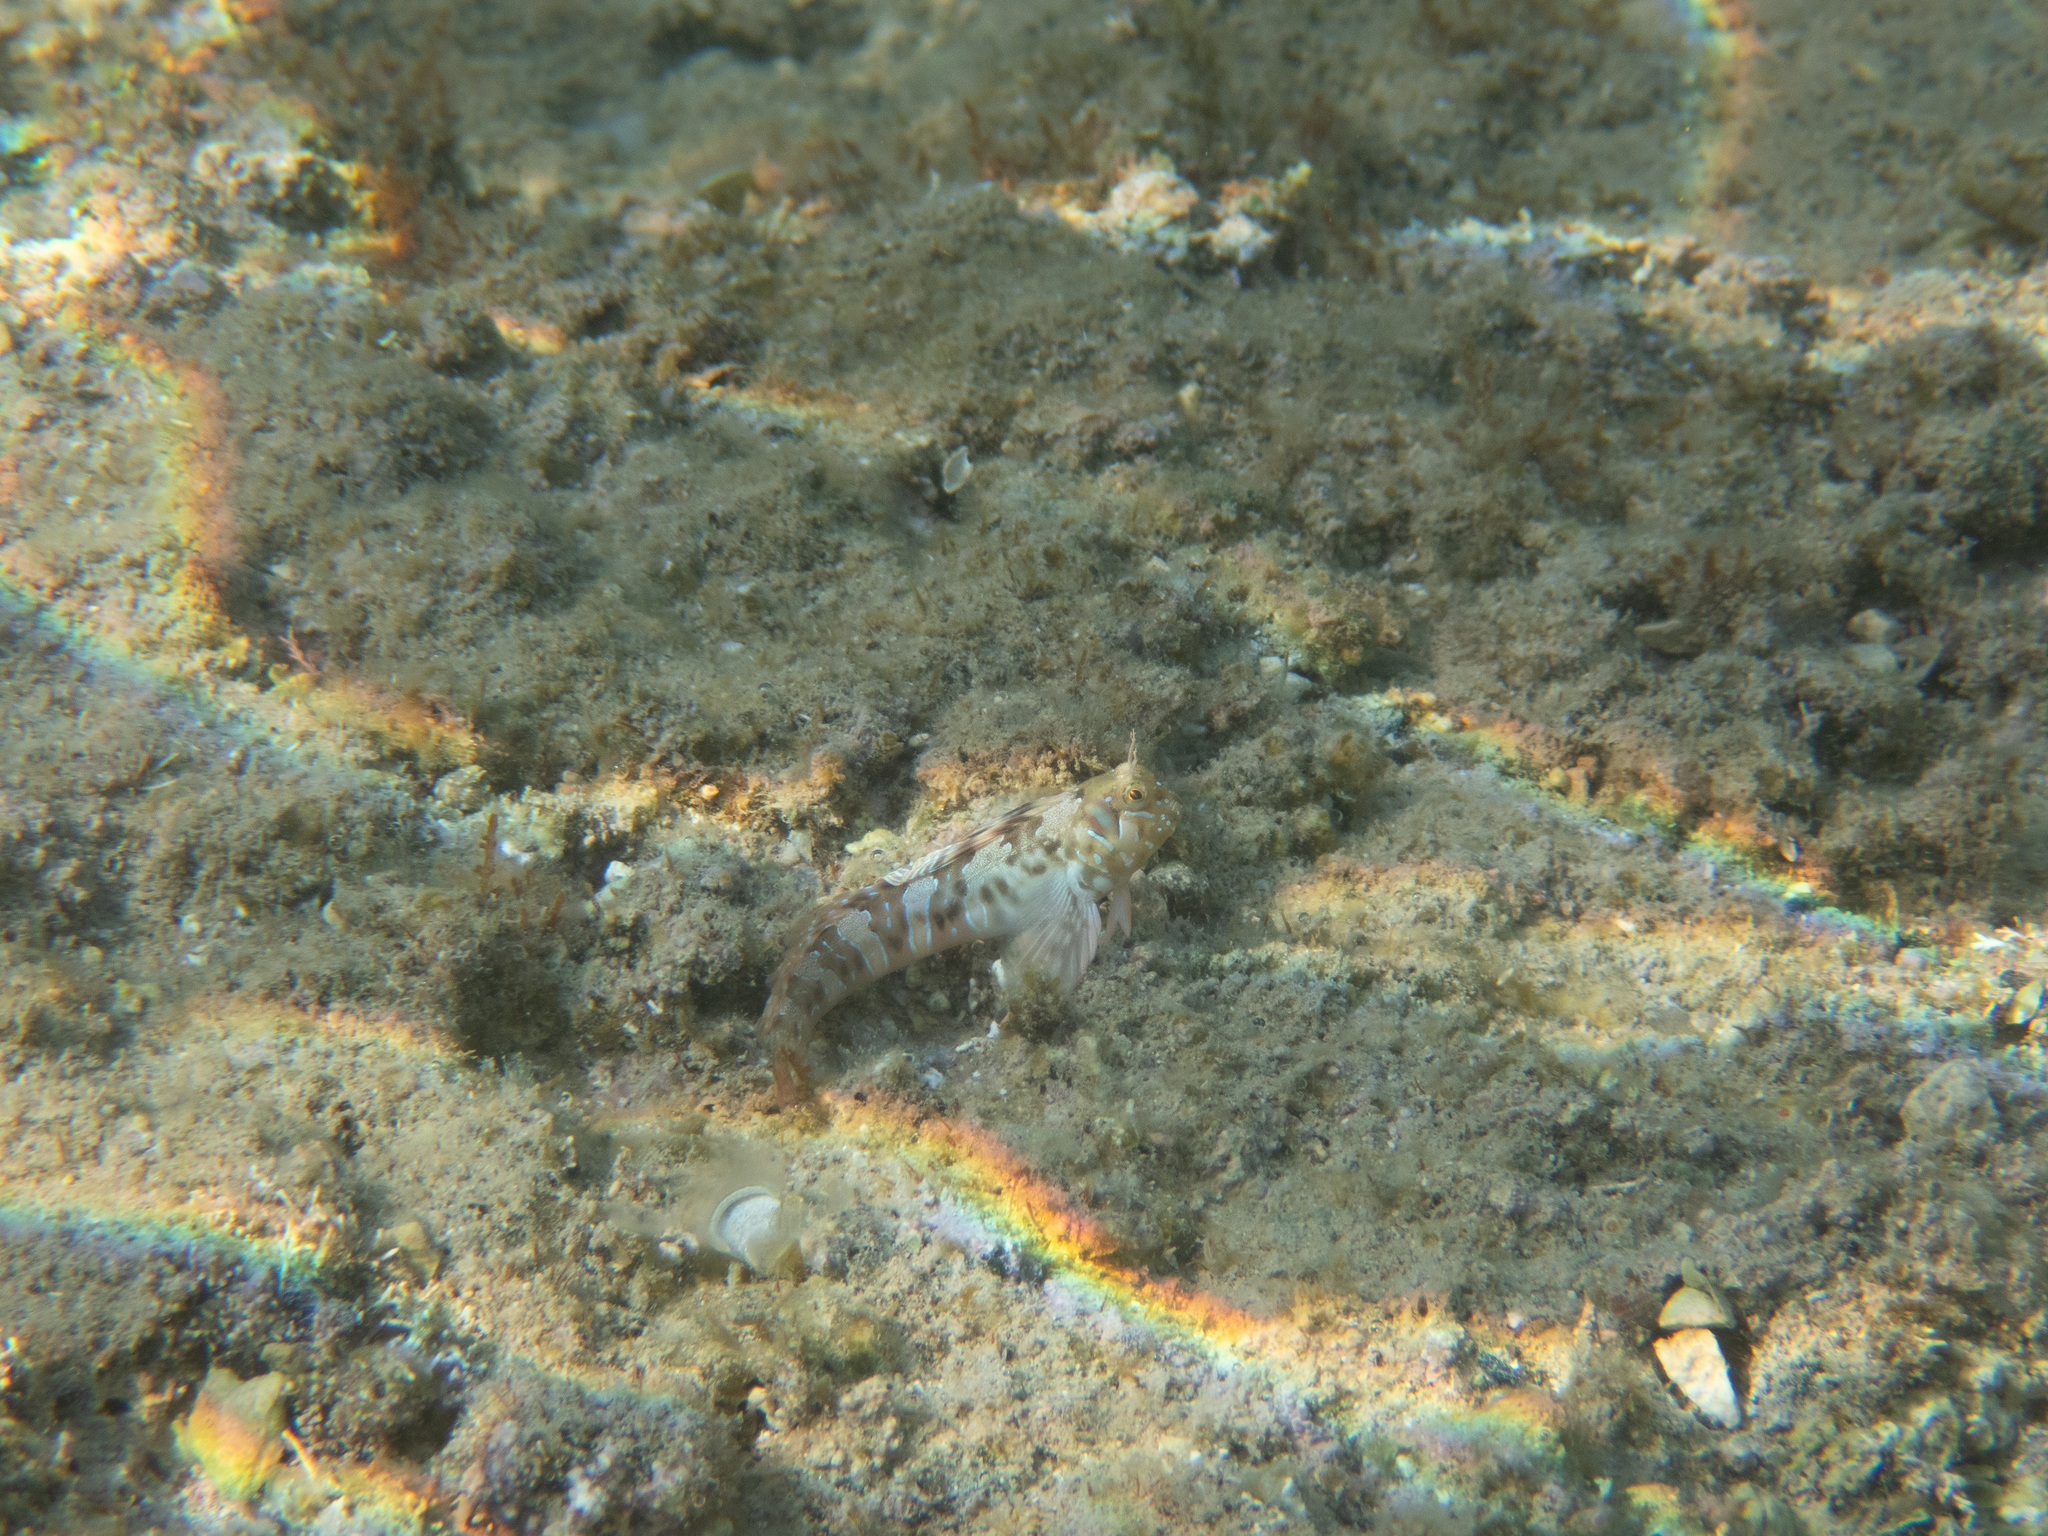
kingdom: Animalia
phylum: Chordata
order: Perciformes
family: Blenniidae
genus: Aidablennius
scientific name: Aidablennius sphynx
